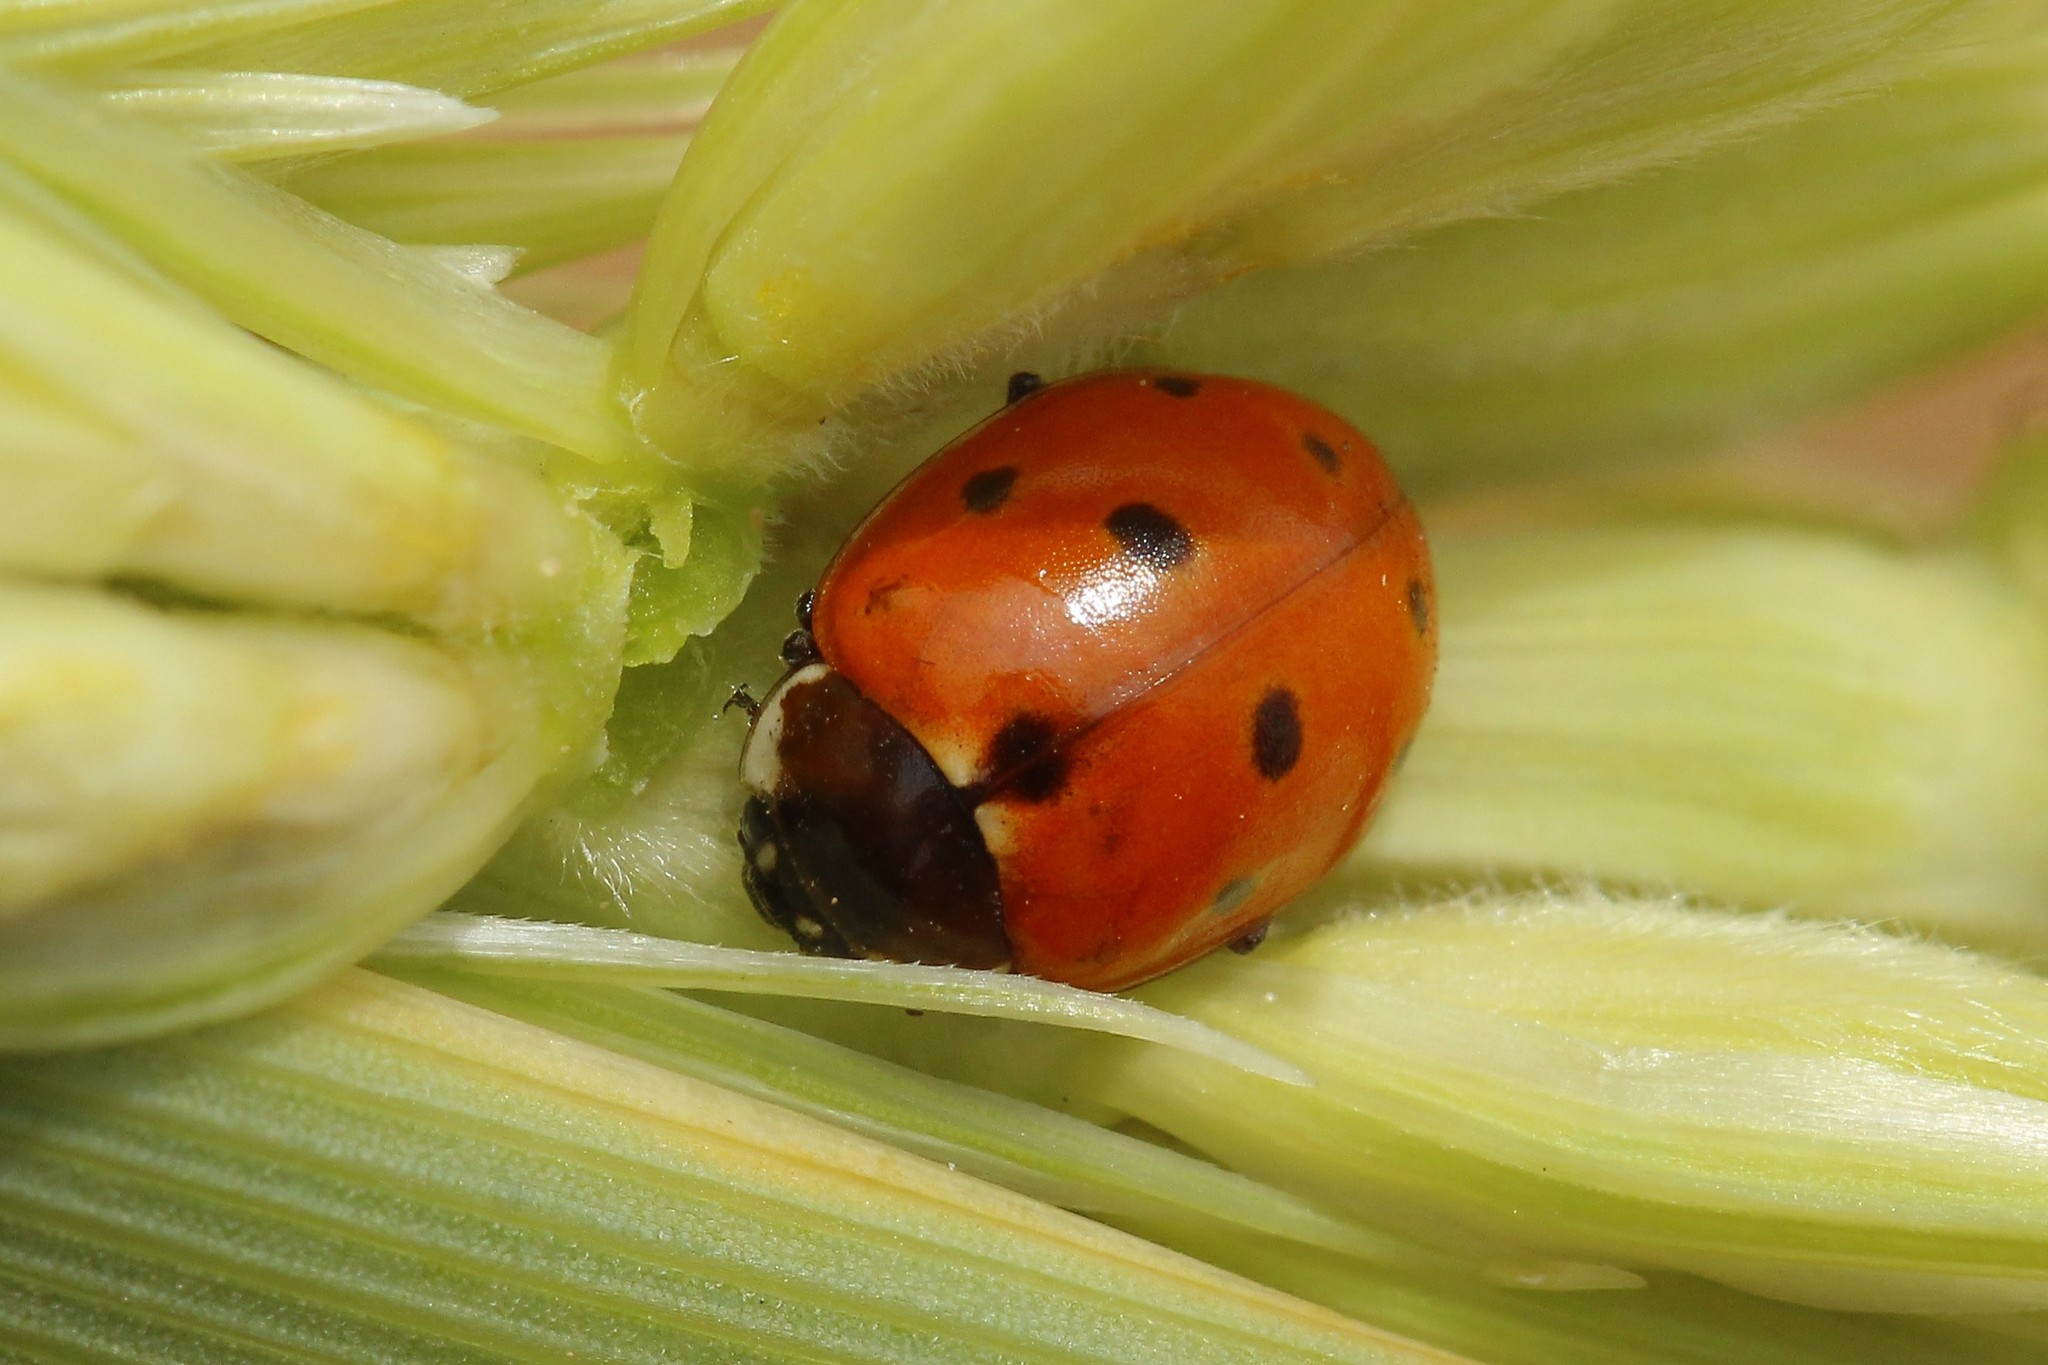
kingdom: Animalia
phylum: Arthropoda
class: Insecta
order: Coleoptera
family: Coccinellidae
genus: Coccinella
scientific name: Coccinella undecimpunctata
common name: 11-spot ladybird
